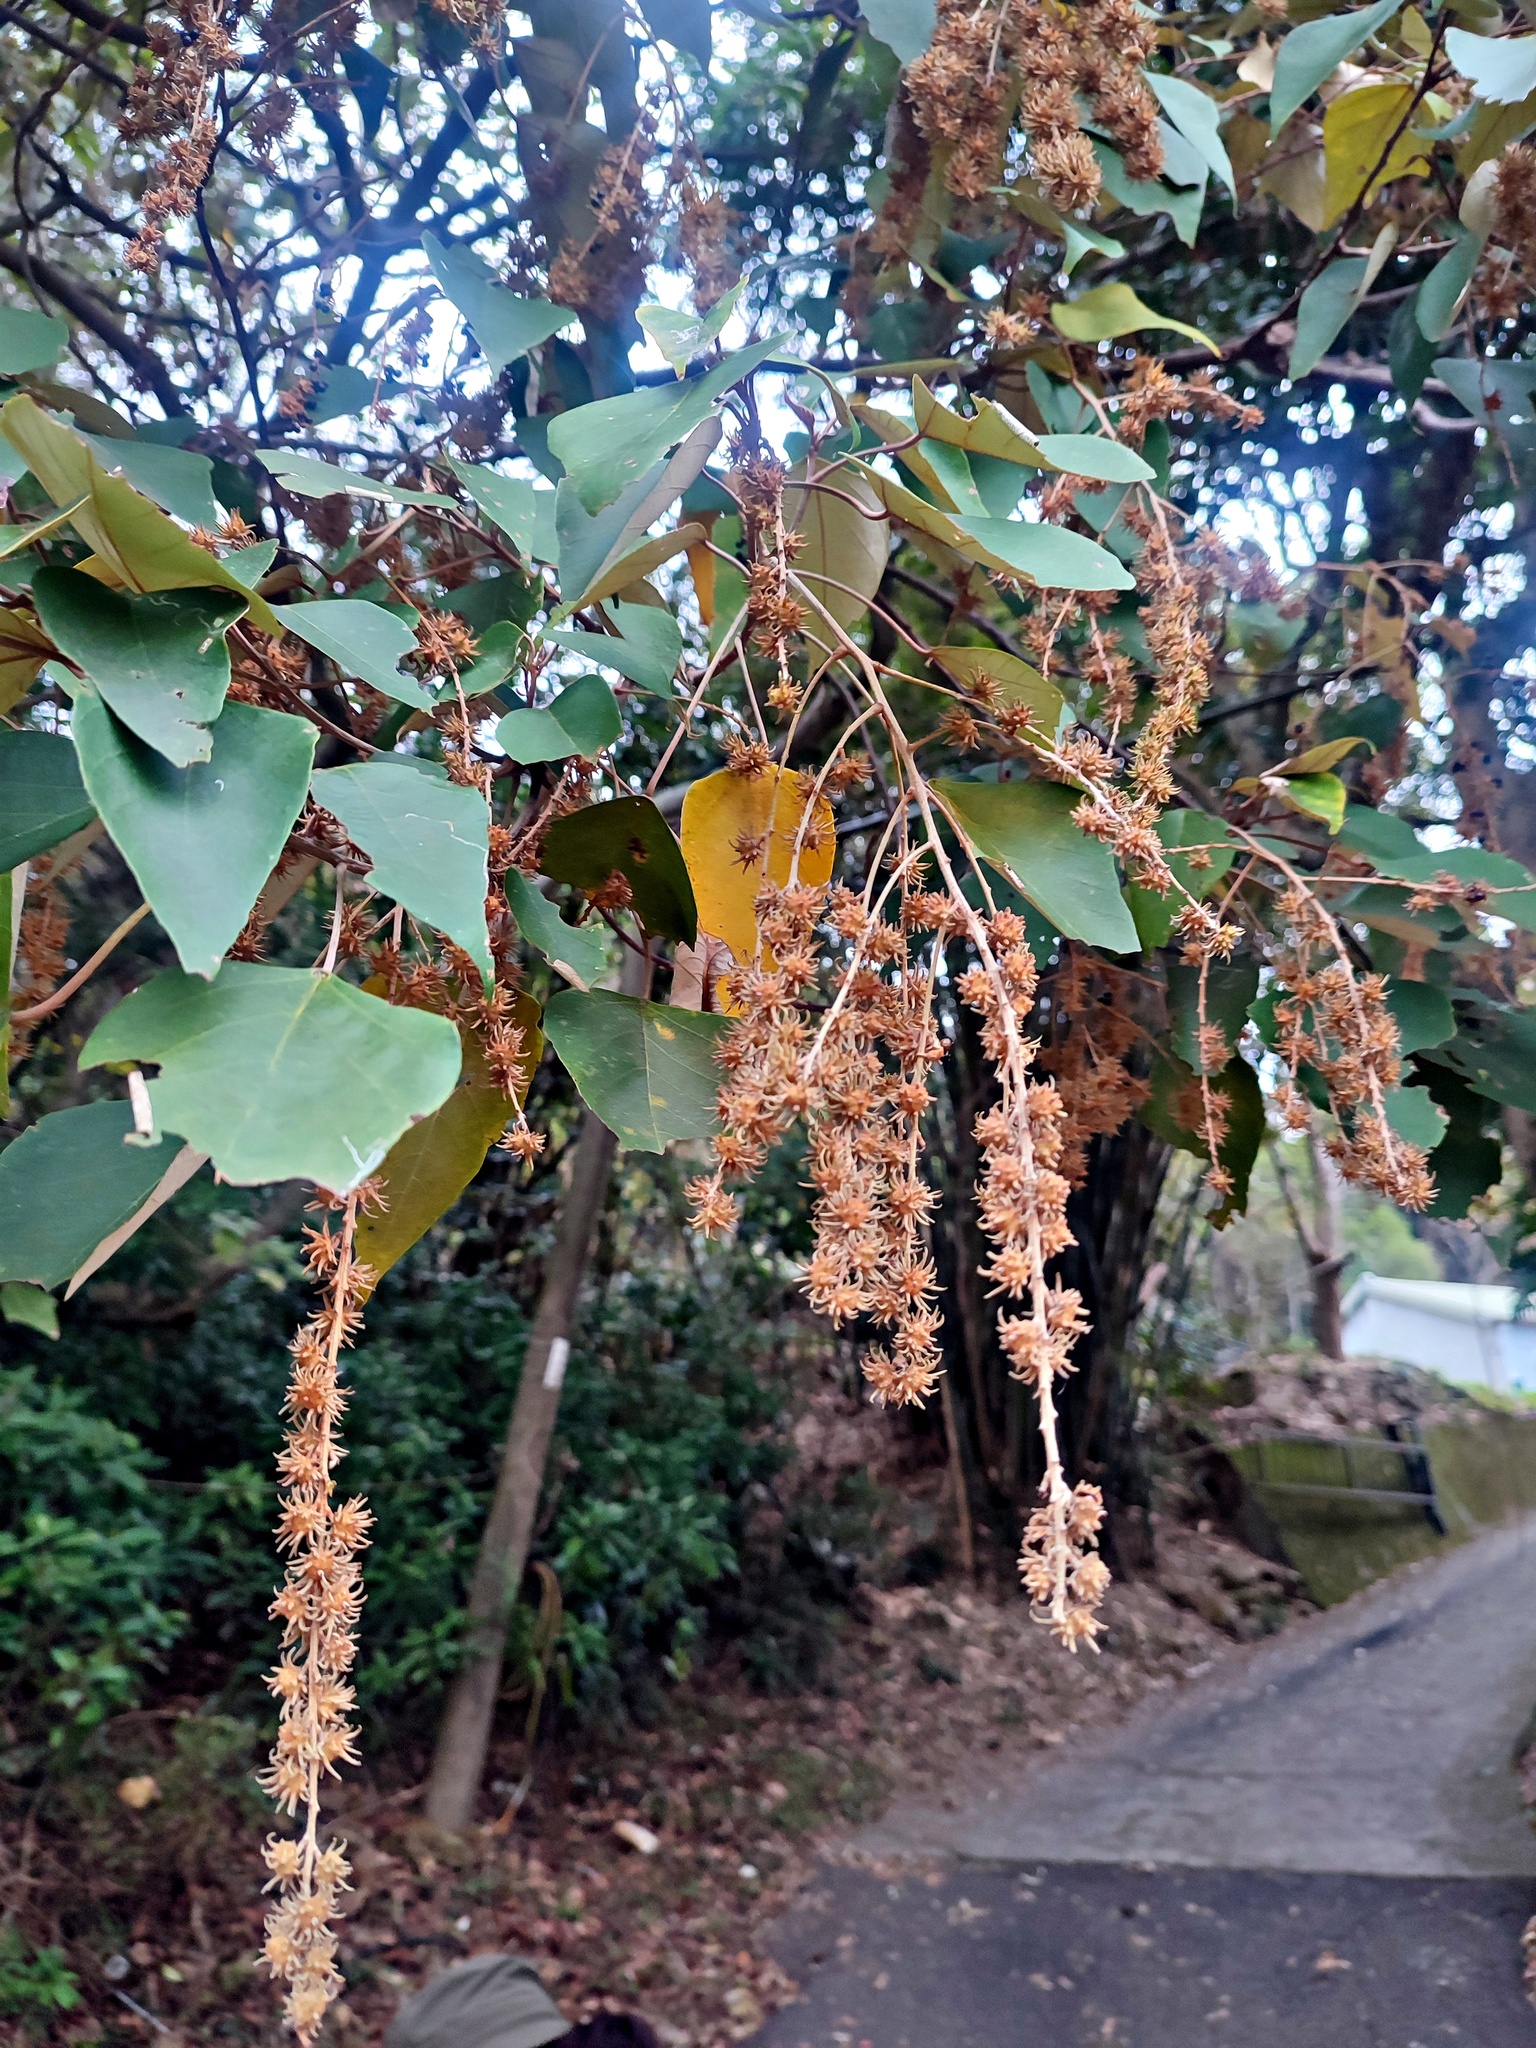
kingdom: Plantae
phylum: Tracheophyta
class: Magnoliopsida
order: Malpighiales
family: Euphorbiaceae
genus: Mallotus
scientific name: Mallotus paniculatus
